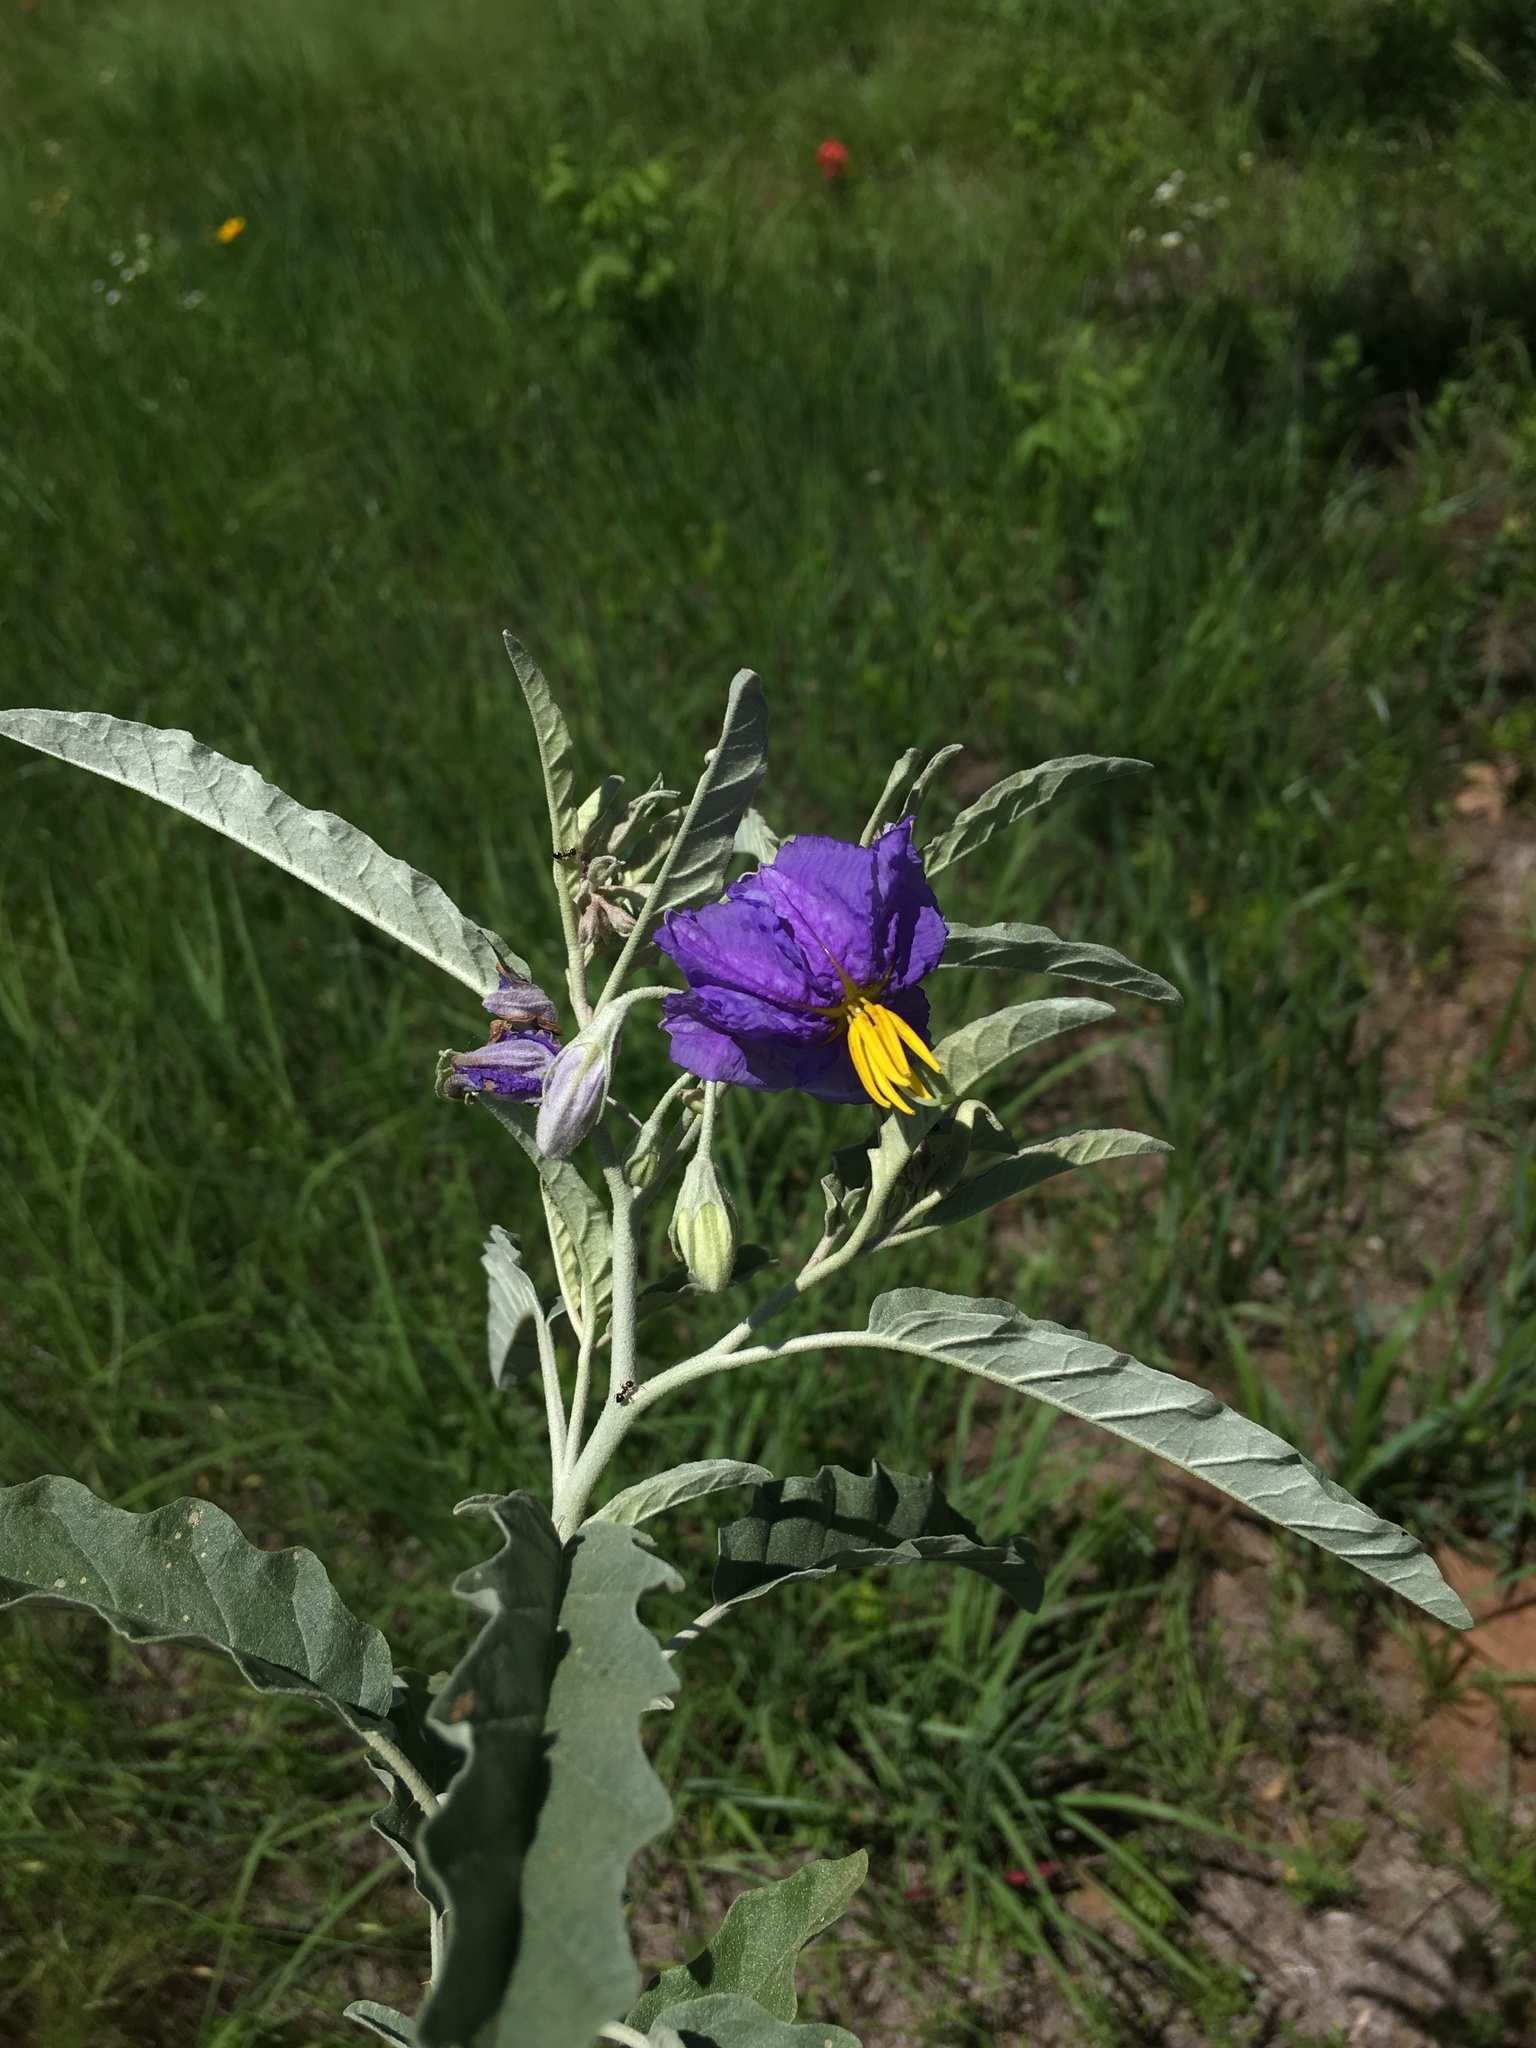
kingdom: Plantae
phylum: Tracheophyta
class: Magnoliopsida
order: Solanales
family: Solanaceae
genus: Solanum
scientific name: Solanum elaeagnifolium
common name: Silverleaf nightshade
